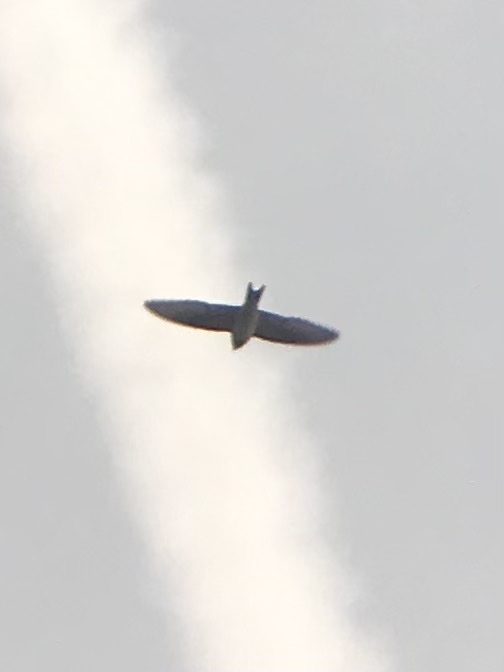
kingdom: Animalia
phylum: Chordata
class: Aves
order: Passeriformes
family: Hirundinidae
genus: Hirundo
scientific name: Hirundo rustica
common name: Barn swallow
